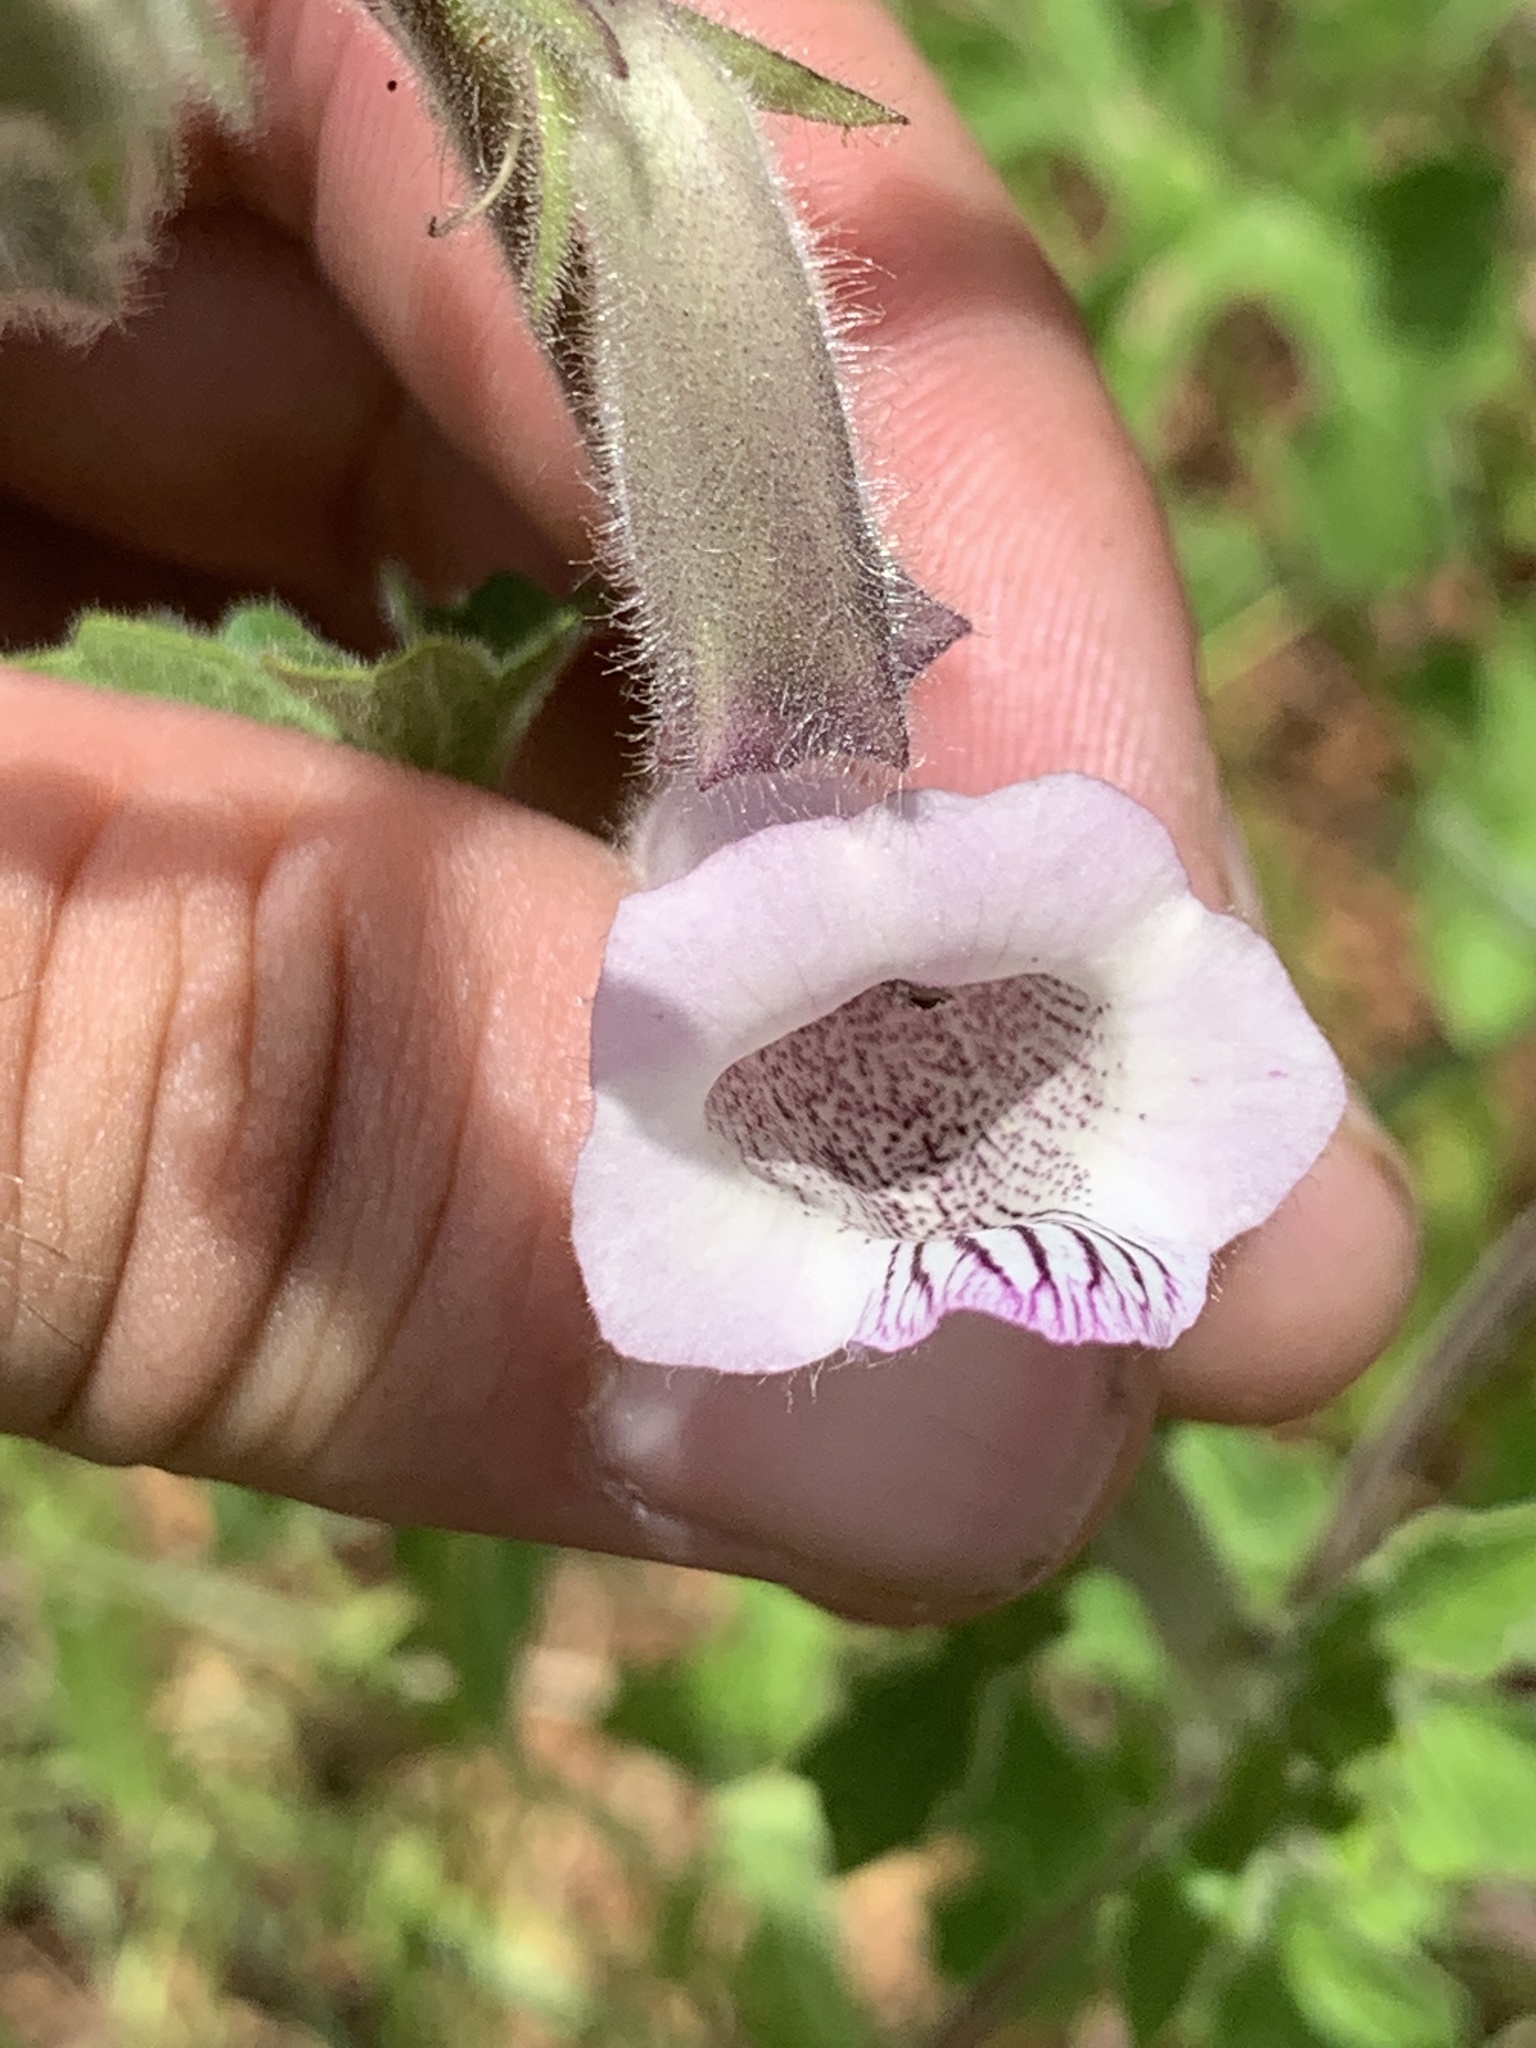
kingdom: Plantae
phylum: Tracheophyta
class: Magnoliopsida
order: Lamiales
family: Pedaliaceae
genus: Sesamum
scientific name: Sesamum trilobum
